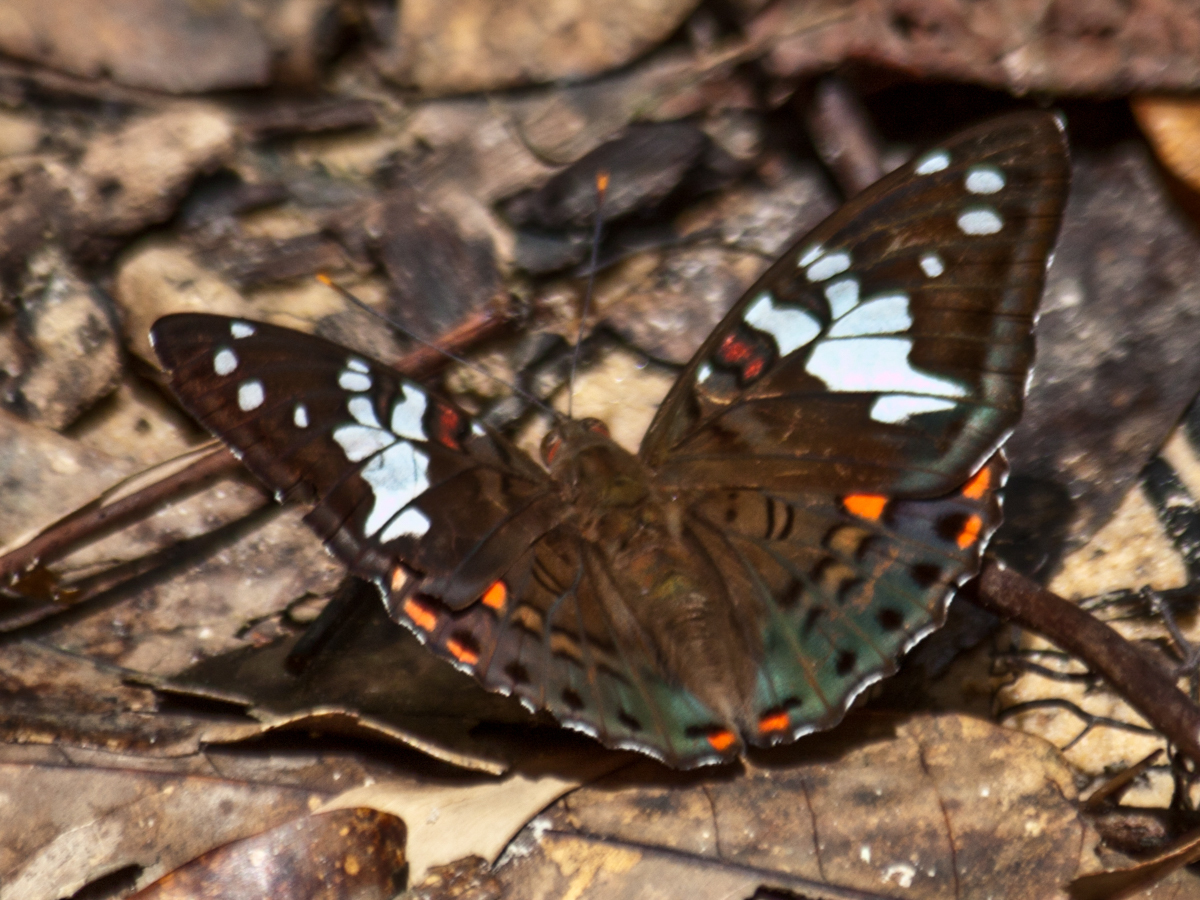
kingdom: Animalia
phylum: Arthropoda
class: Insecta
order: Lepidoptera
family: Nymphalidae
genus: Euthalia
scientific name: Euthalia malaccana
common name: Fruhstorfer's baron
